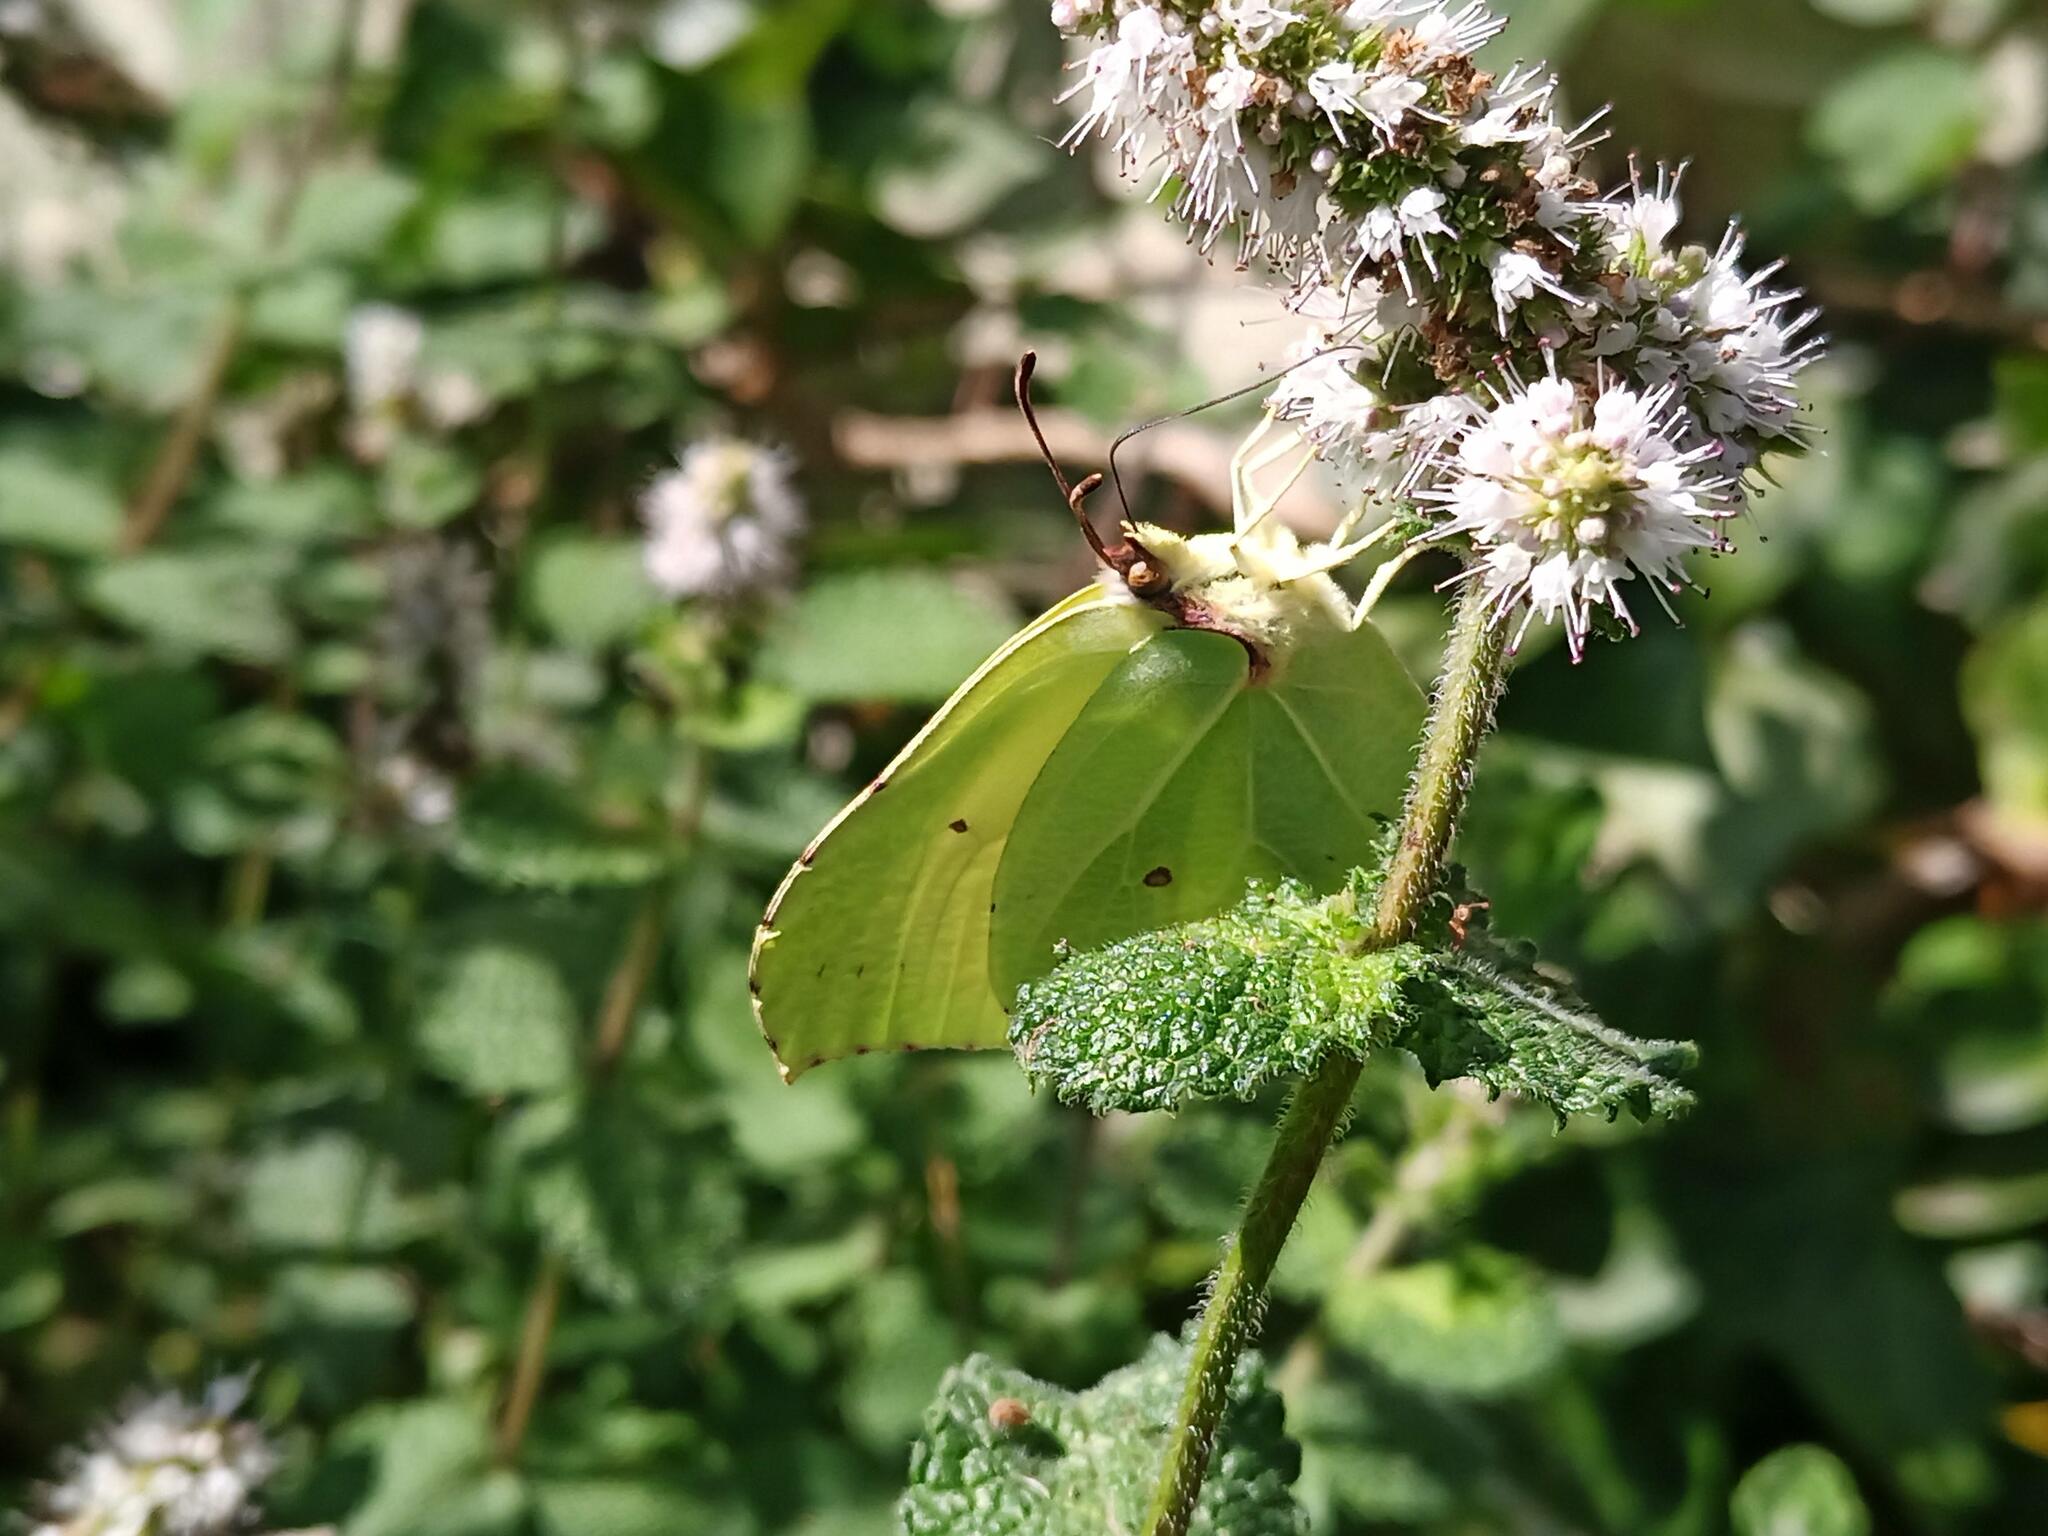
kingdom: Animalia
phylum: Arthropoda
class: Insecta
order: Lepidoptera
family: Pieridae
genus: Gonepteryx
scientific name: Gonepteryx rhamni
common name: Brimstone
